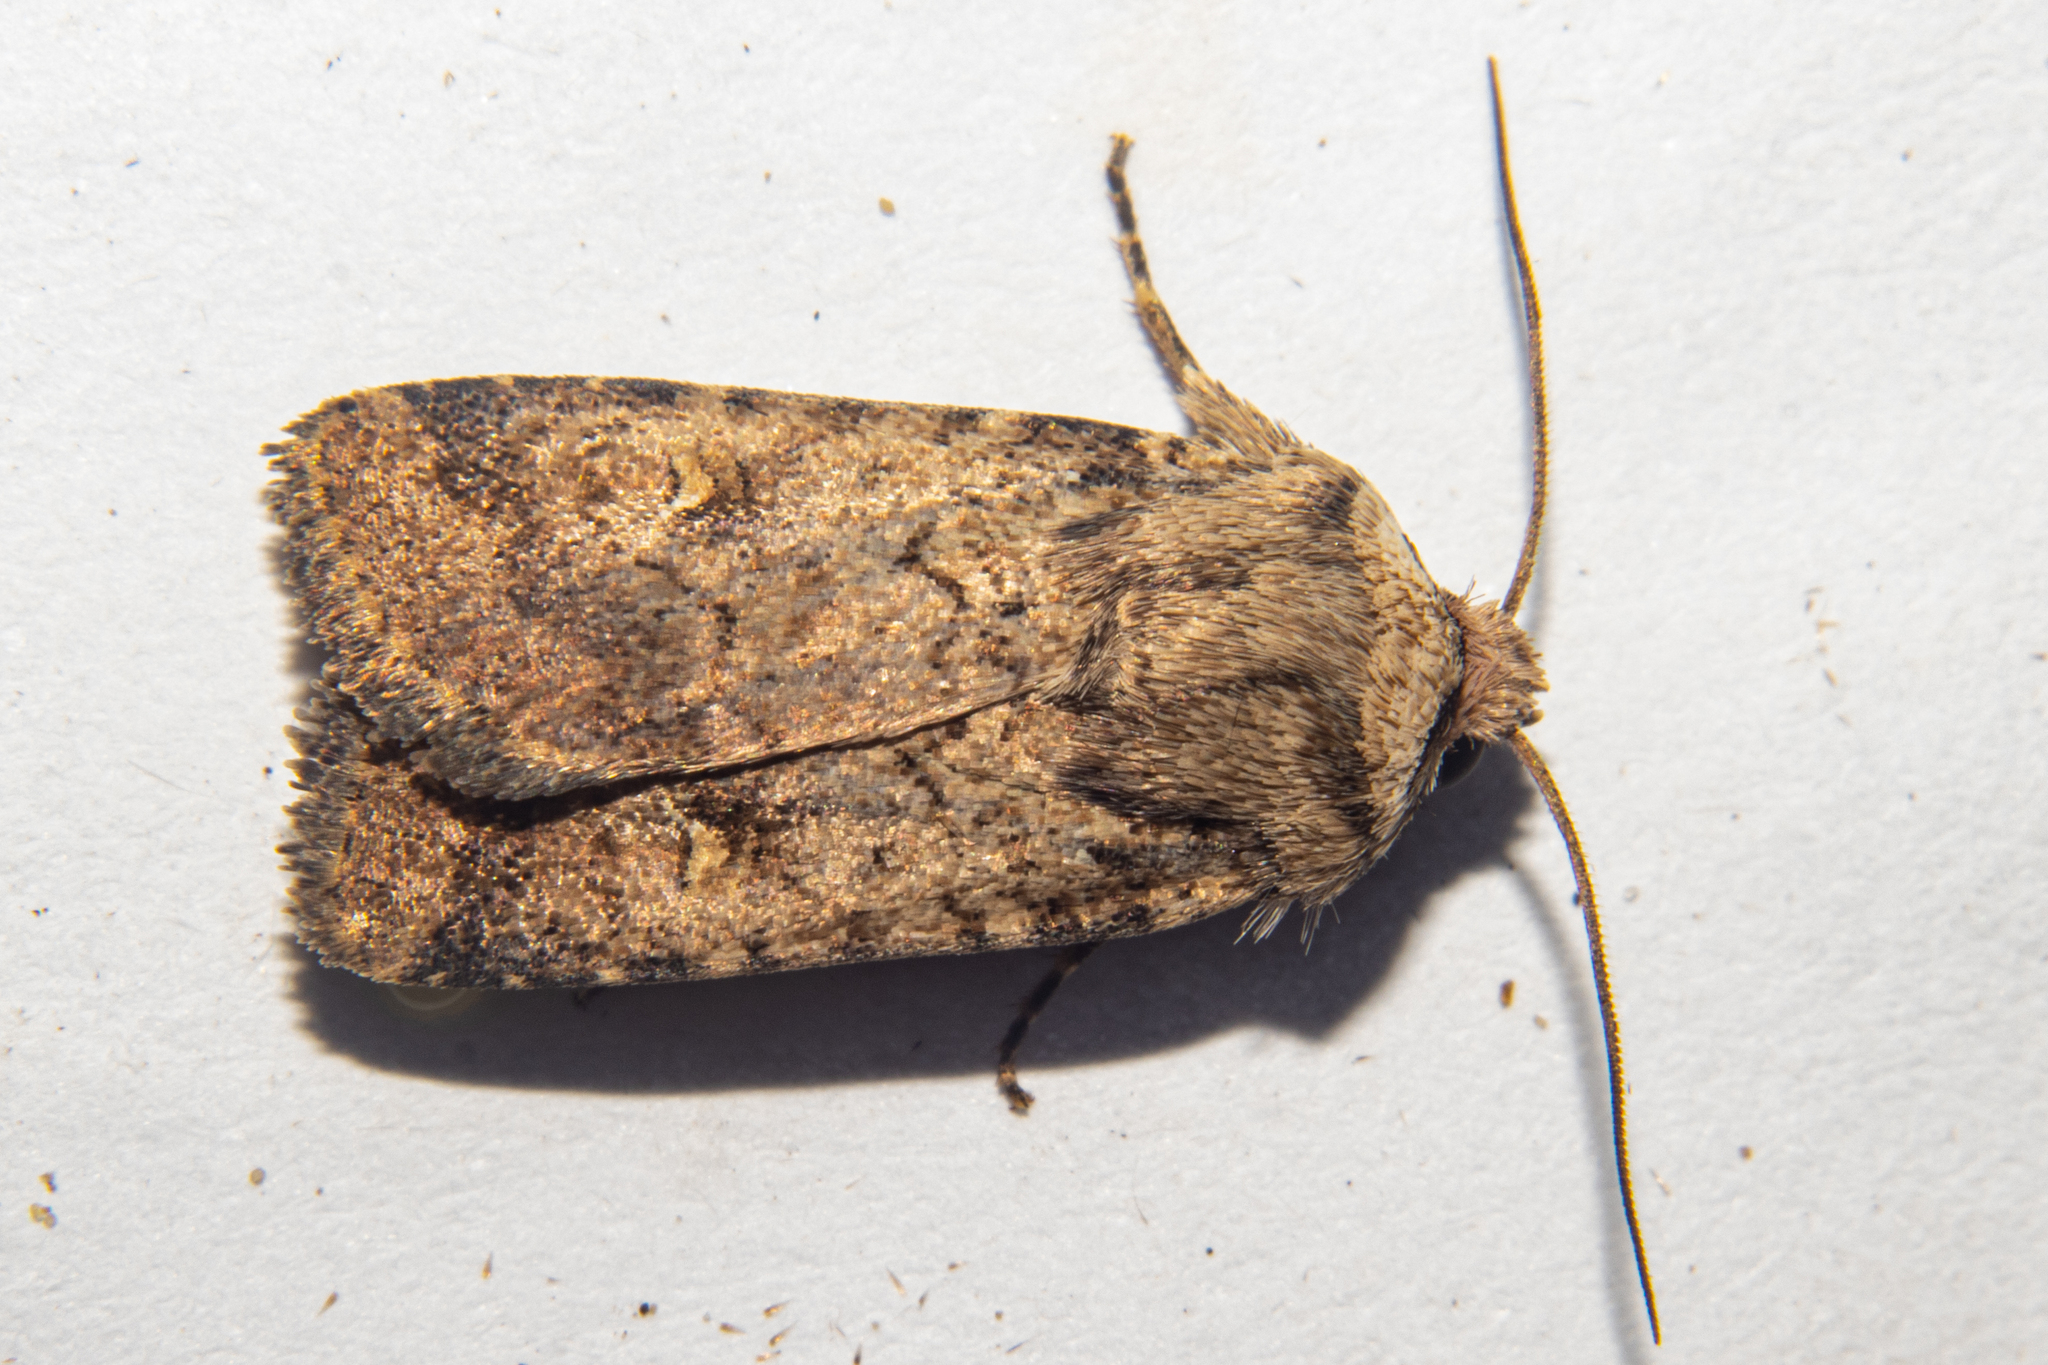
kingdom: Animalia
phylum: Arthropoda
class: Insecta
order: Lepidoptera
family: Noctuidae
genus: Proteuxoa
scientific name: Proteuxoa tetronycha
